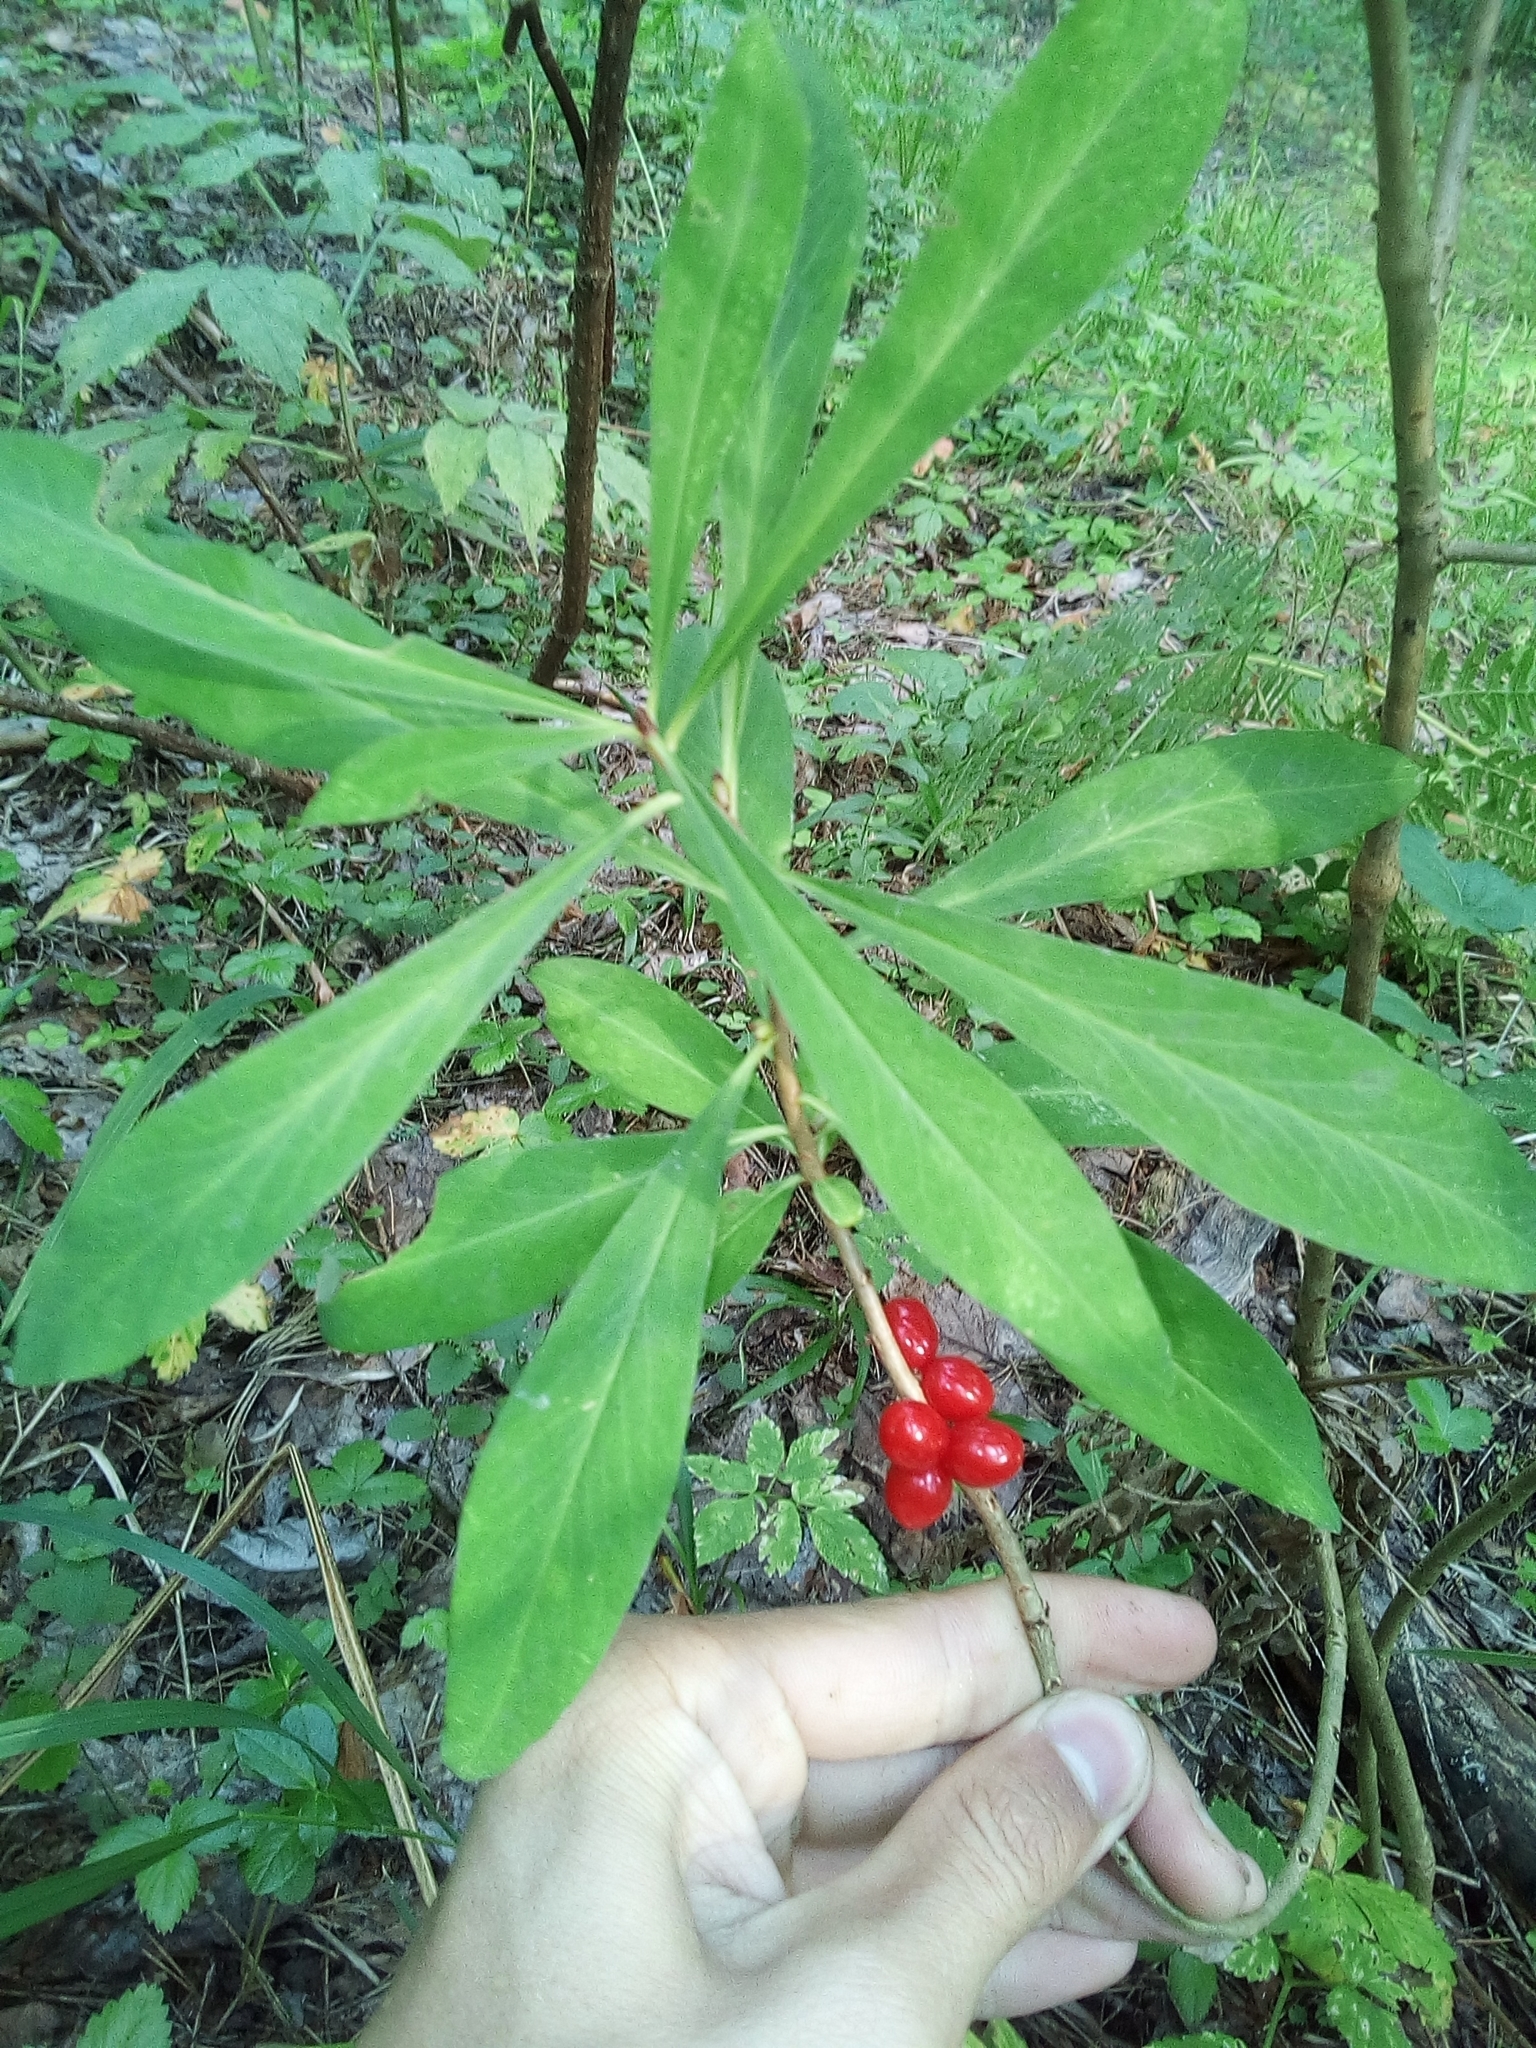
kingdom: Plantae
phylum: Tracheophyta
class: Magnoliopsida
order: Malvales
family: Thymelaeaceae
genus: Daphne
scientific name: Daphne mezereum
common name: Mezereon
